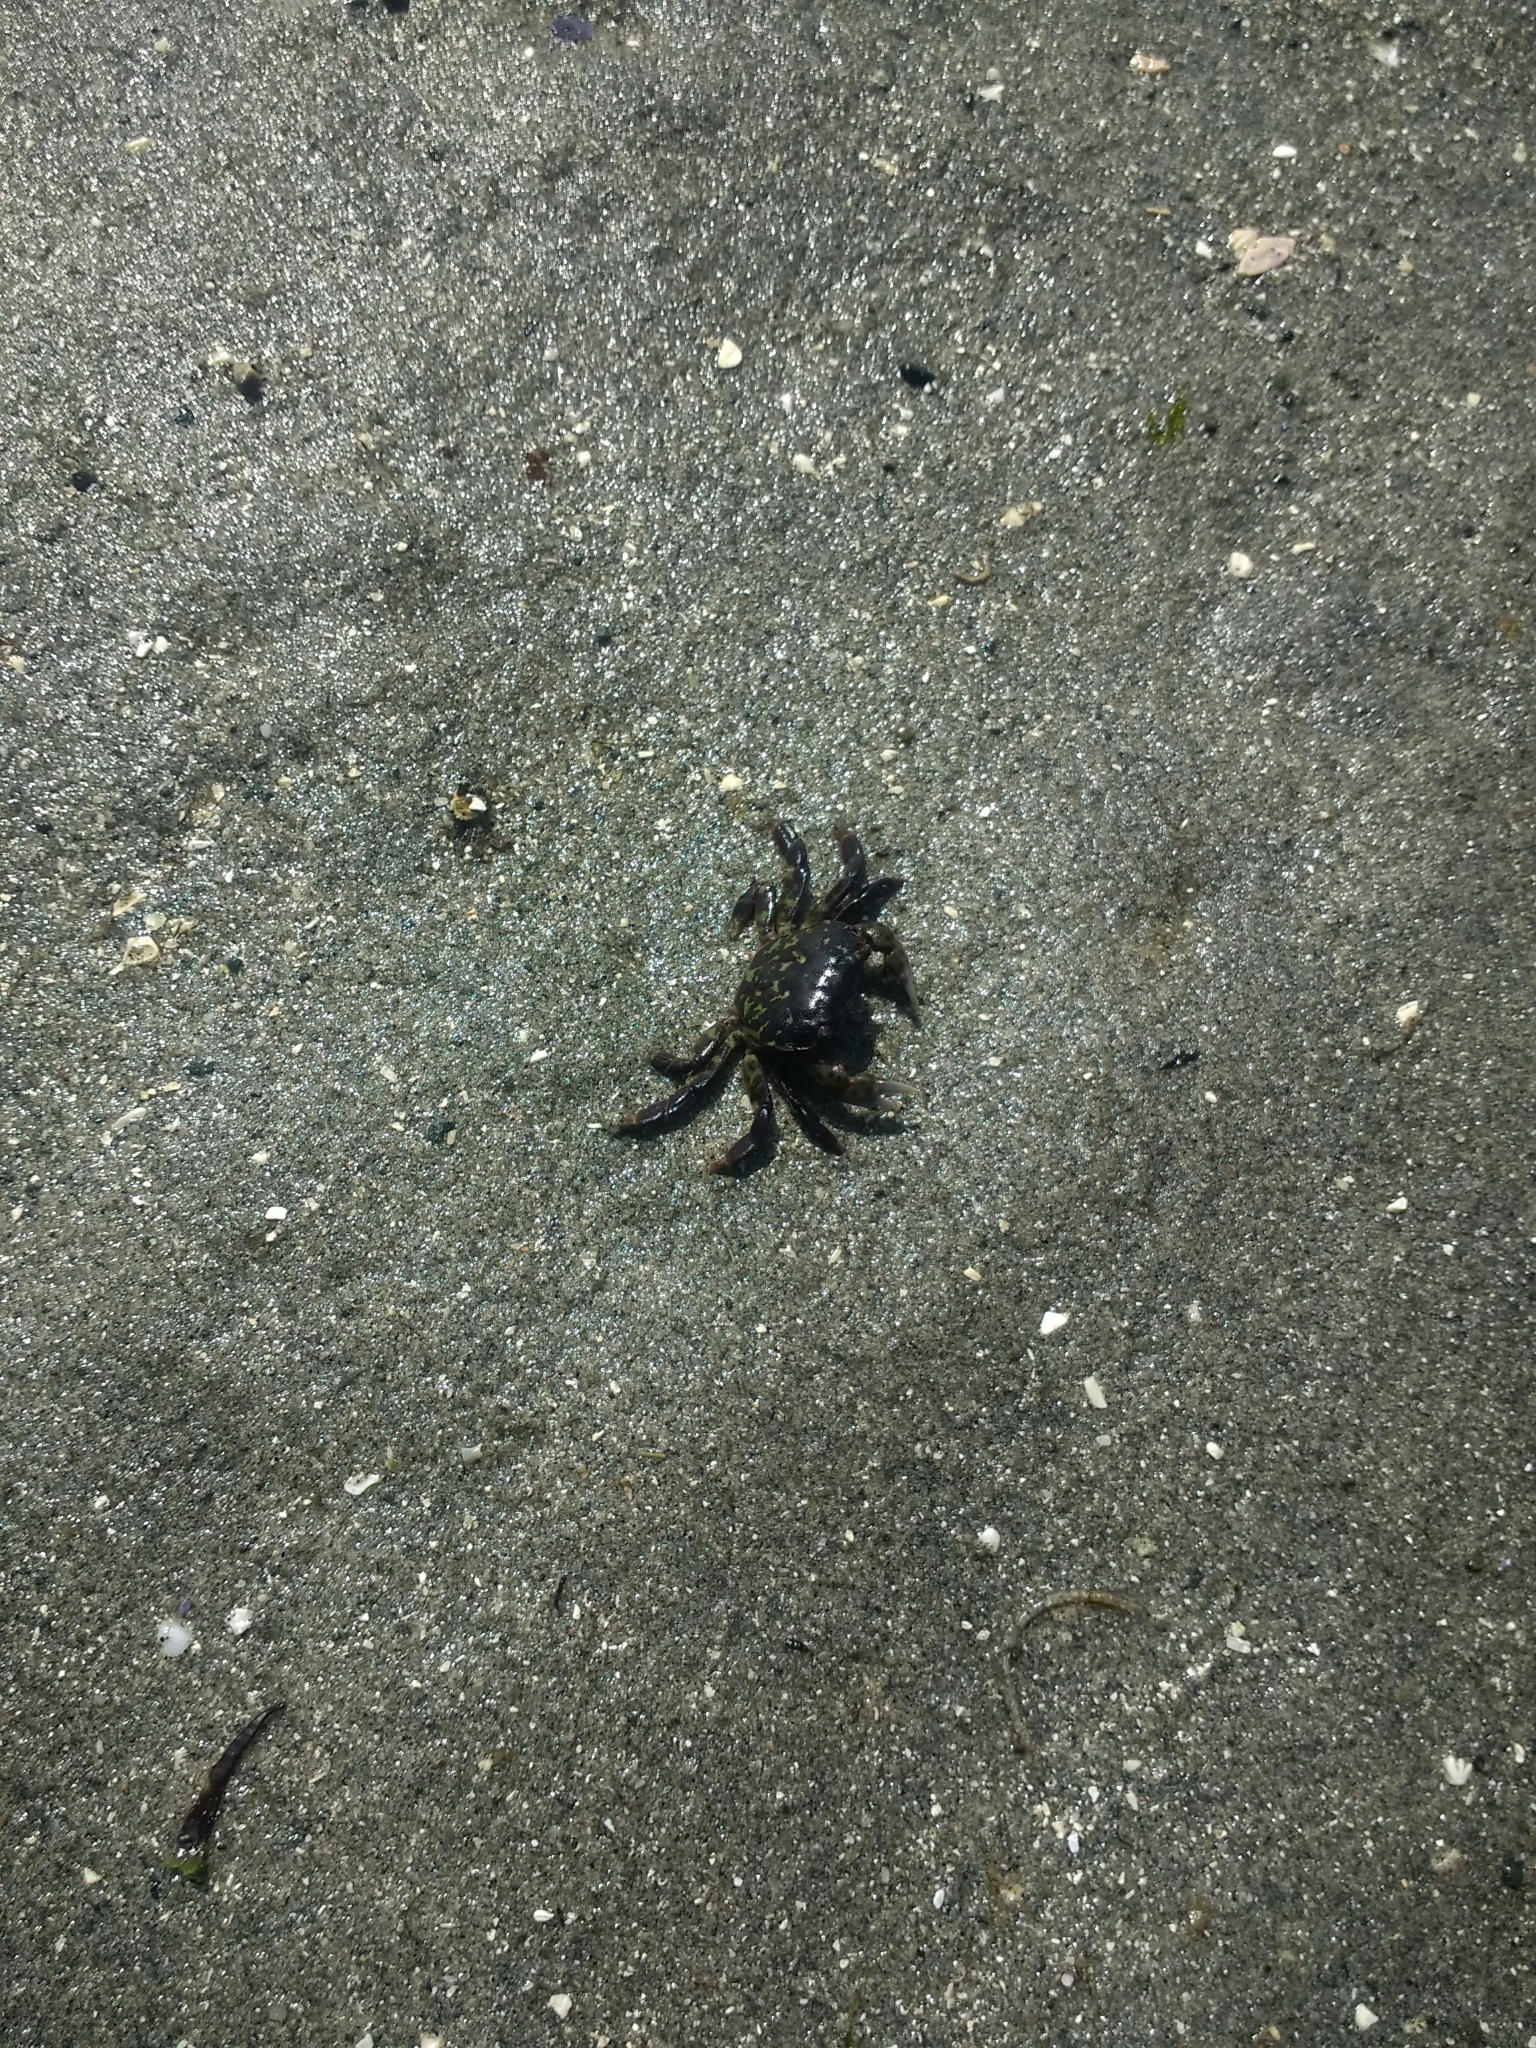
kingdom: Animalia
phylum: Arthropoda
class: Malacostraca
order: Decapoda
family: Varunidae
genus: Hemigrapsus
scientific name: Hemigrapsus nudus
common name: Purple shore crab
